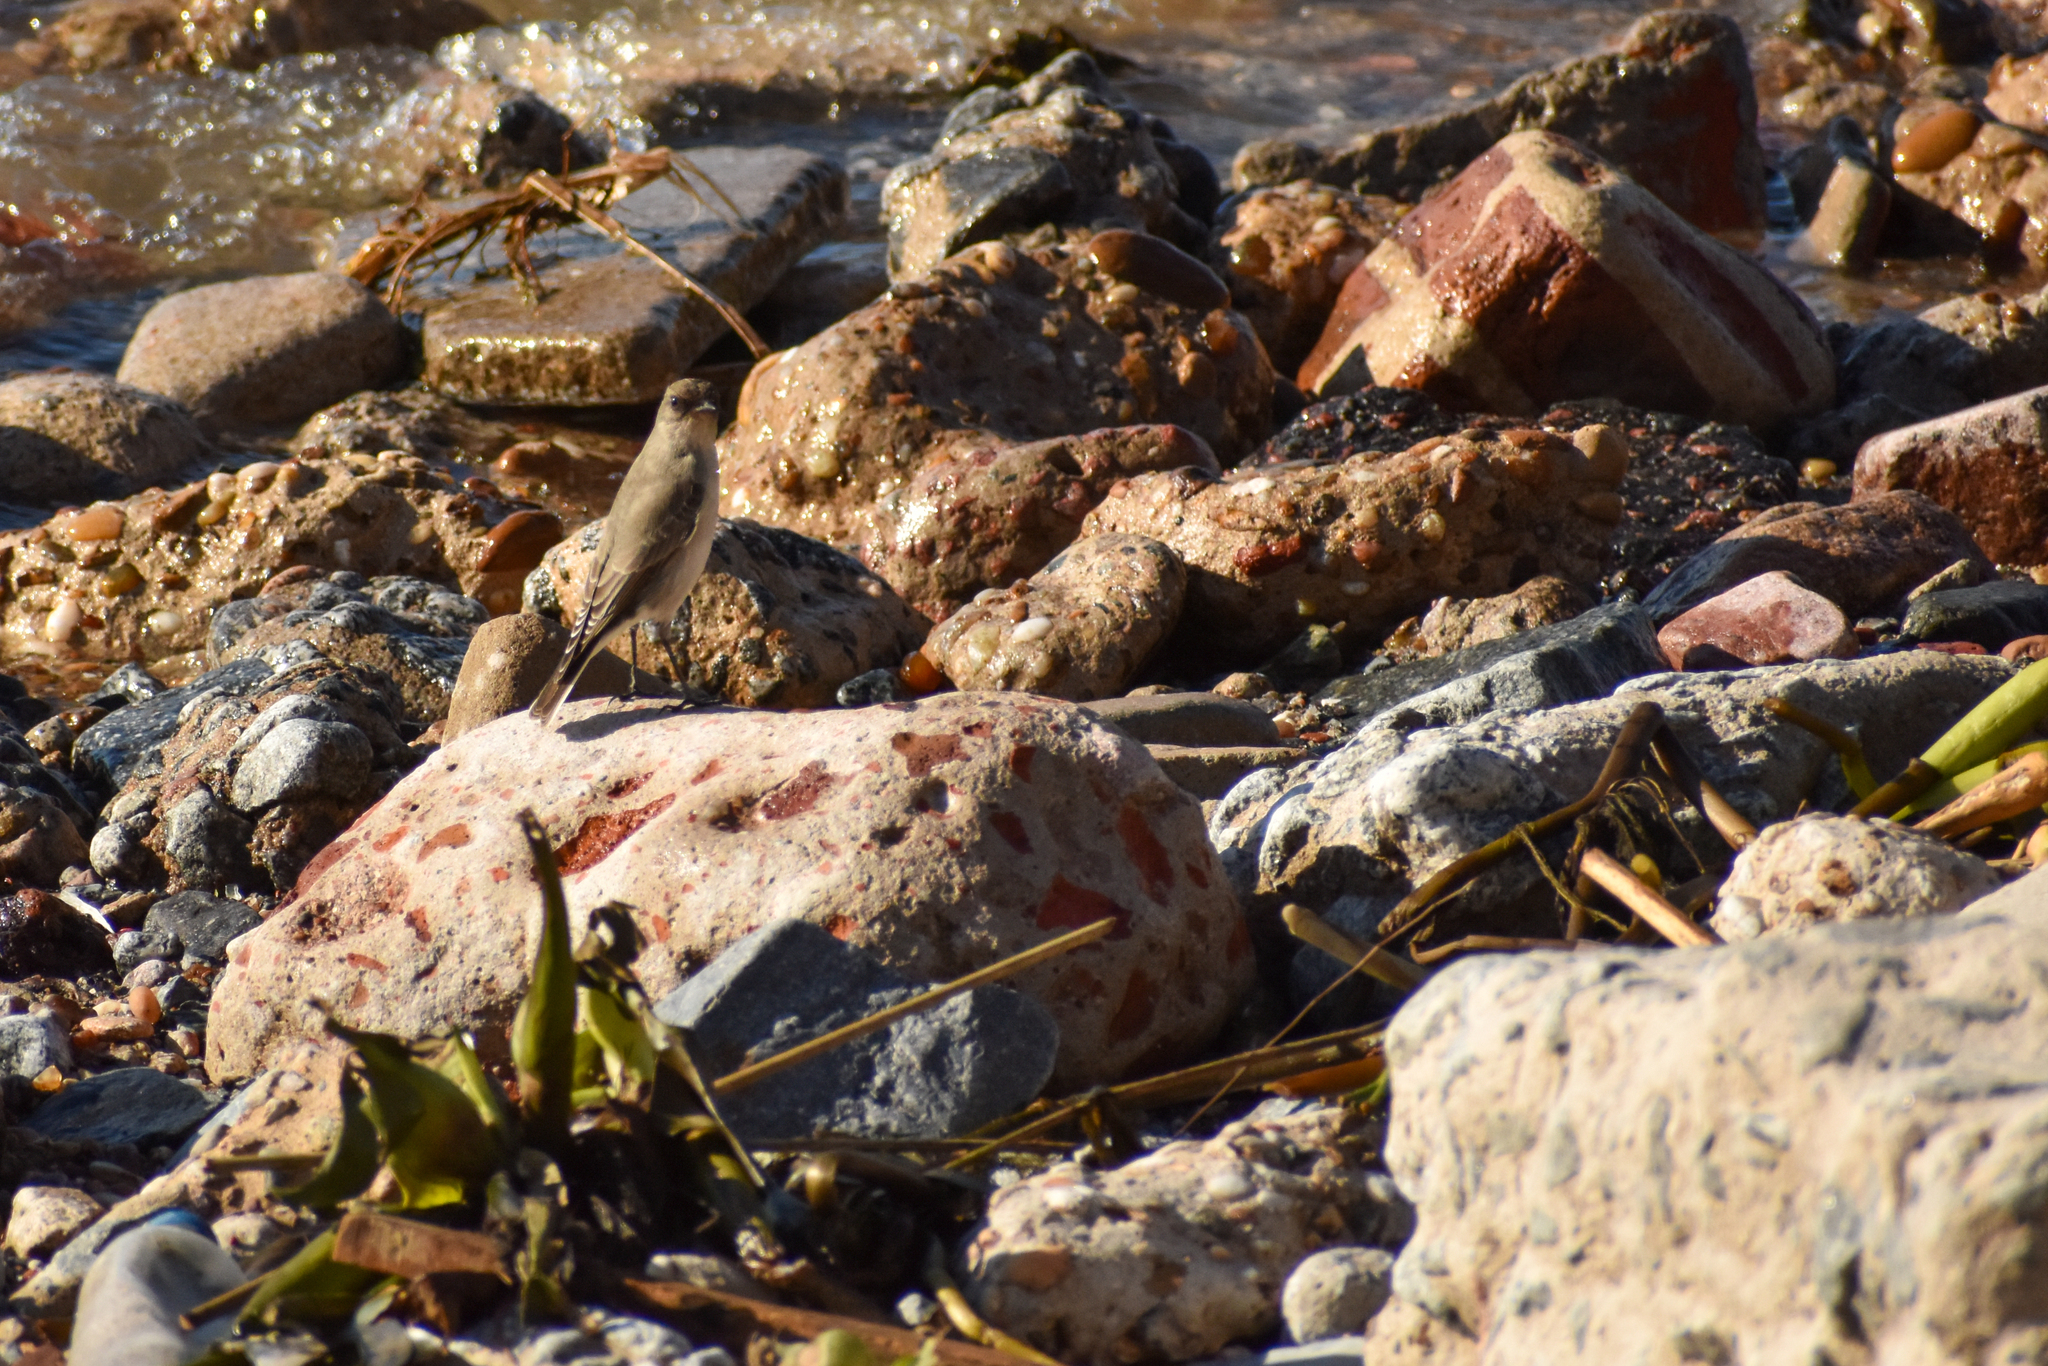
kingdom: Animalia
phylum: Chordata
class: Aves
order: Passeriformes
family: Tyrannidae
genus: Muscisaxicola
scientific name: Muscisaxicola maclovianus
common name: Dark-faced ground tyrant
